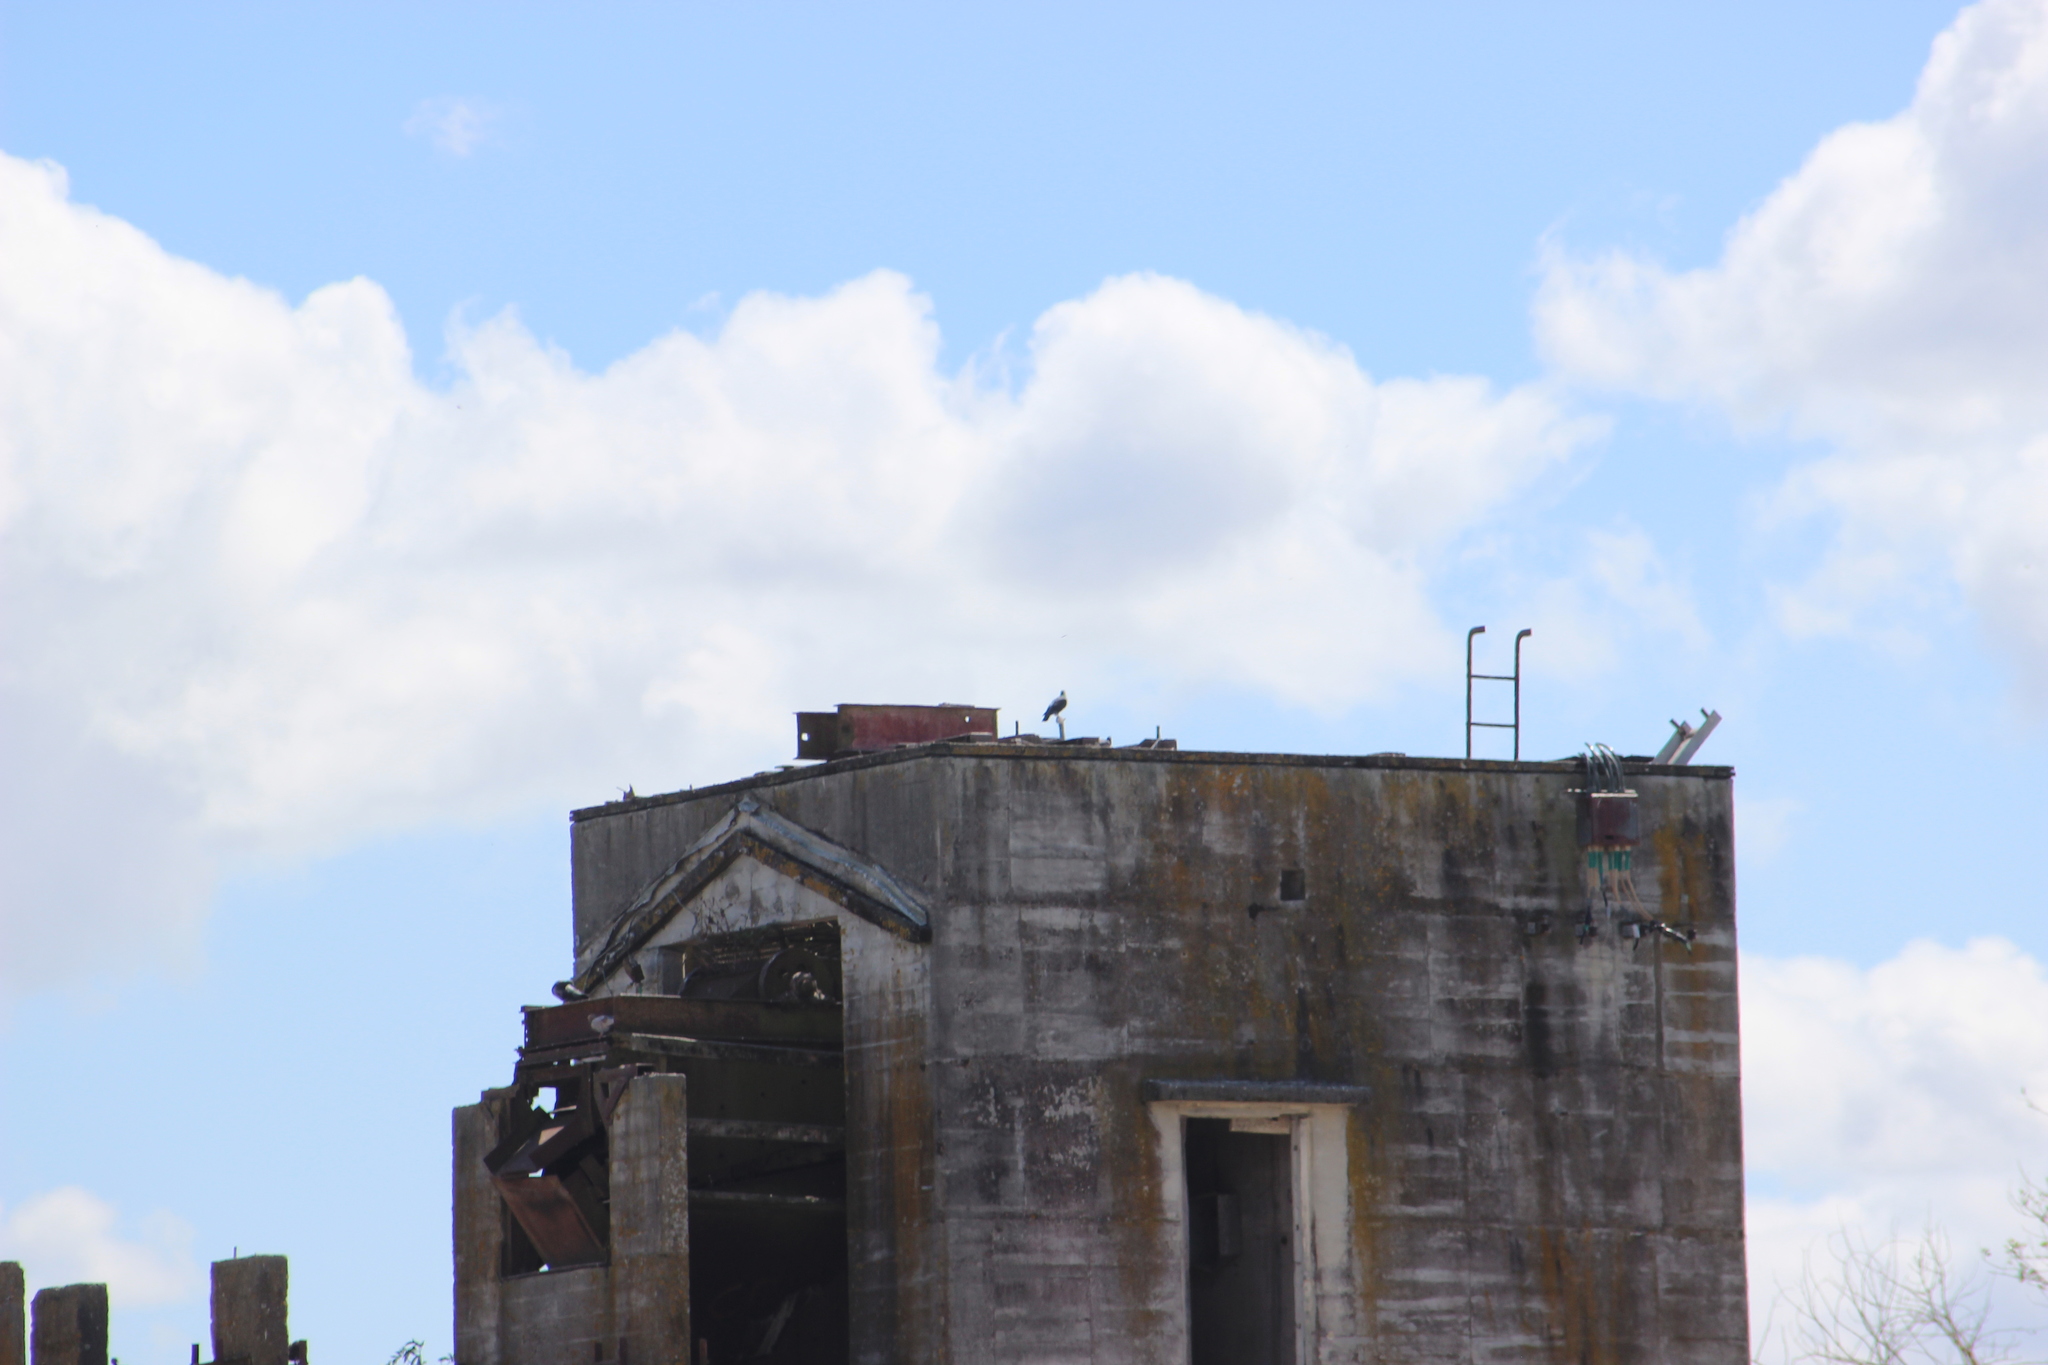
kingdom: Animalia
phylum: Chordata
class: Aves
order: Columbiformes
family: Columbidae
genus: Columba
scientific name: Columba livia
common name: Rock pigeon
